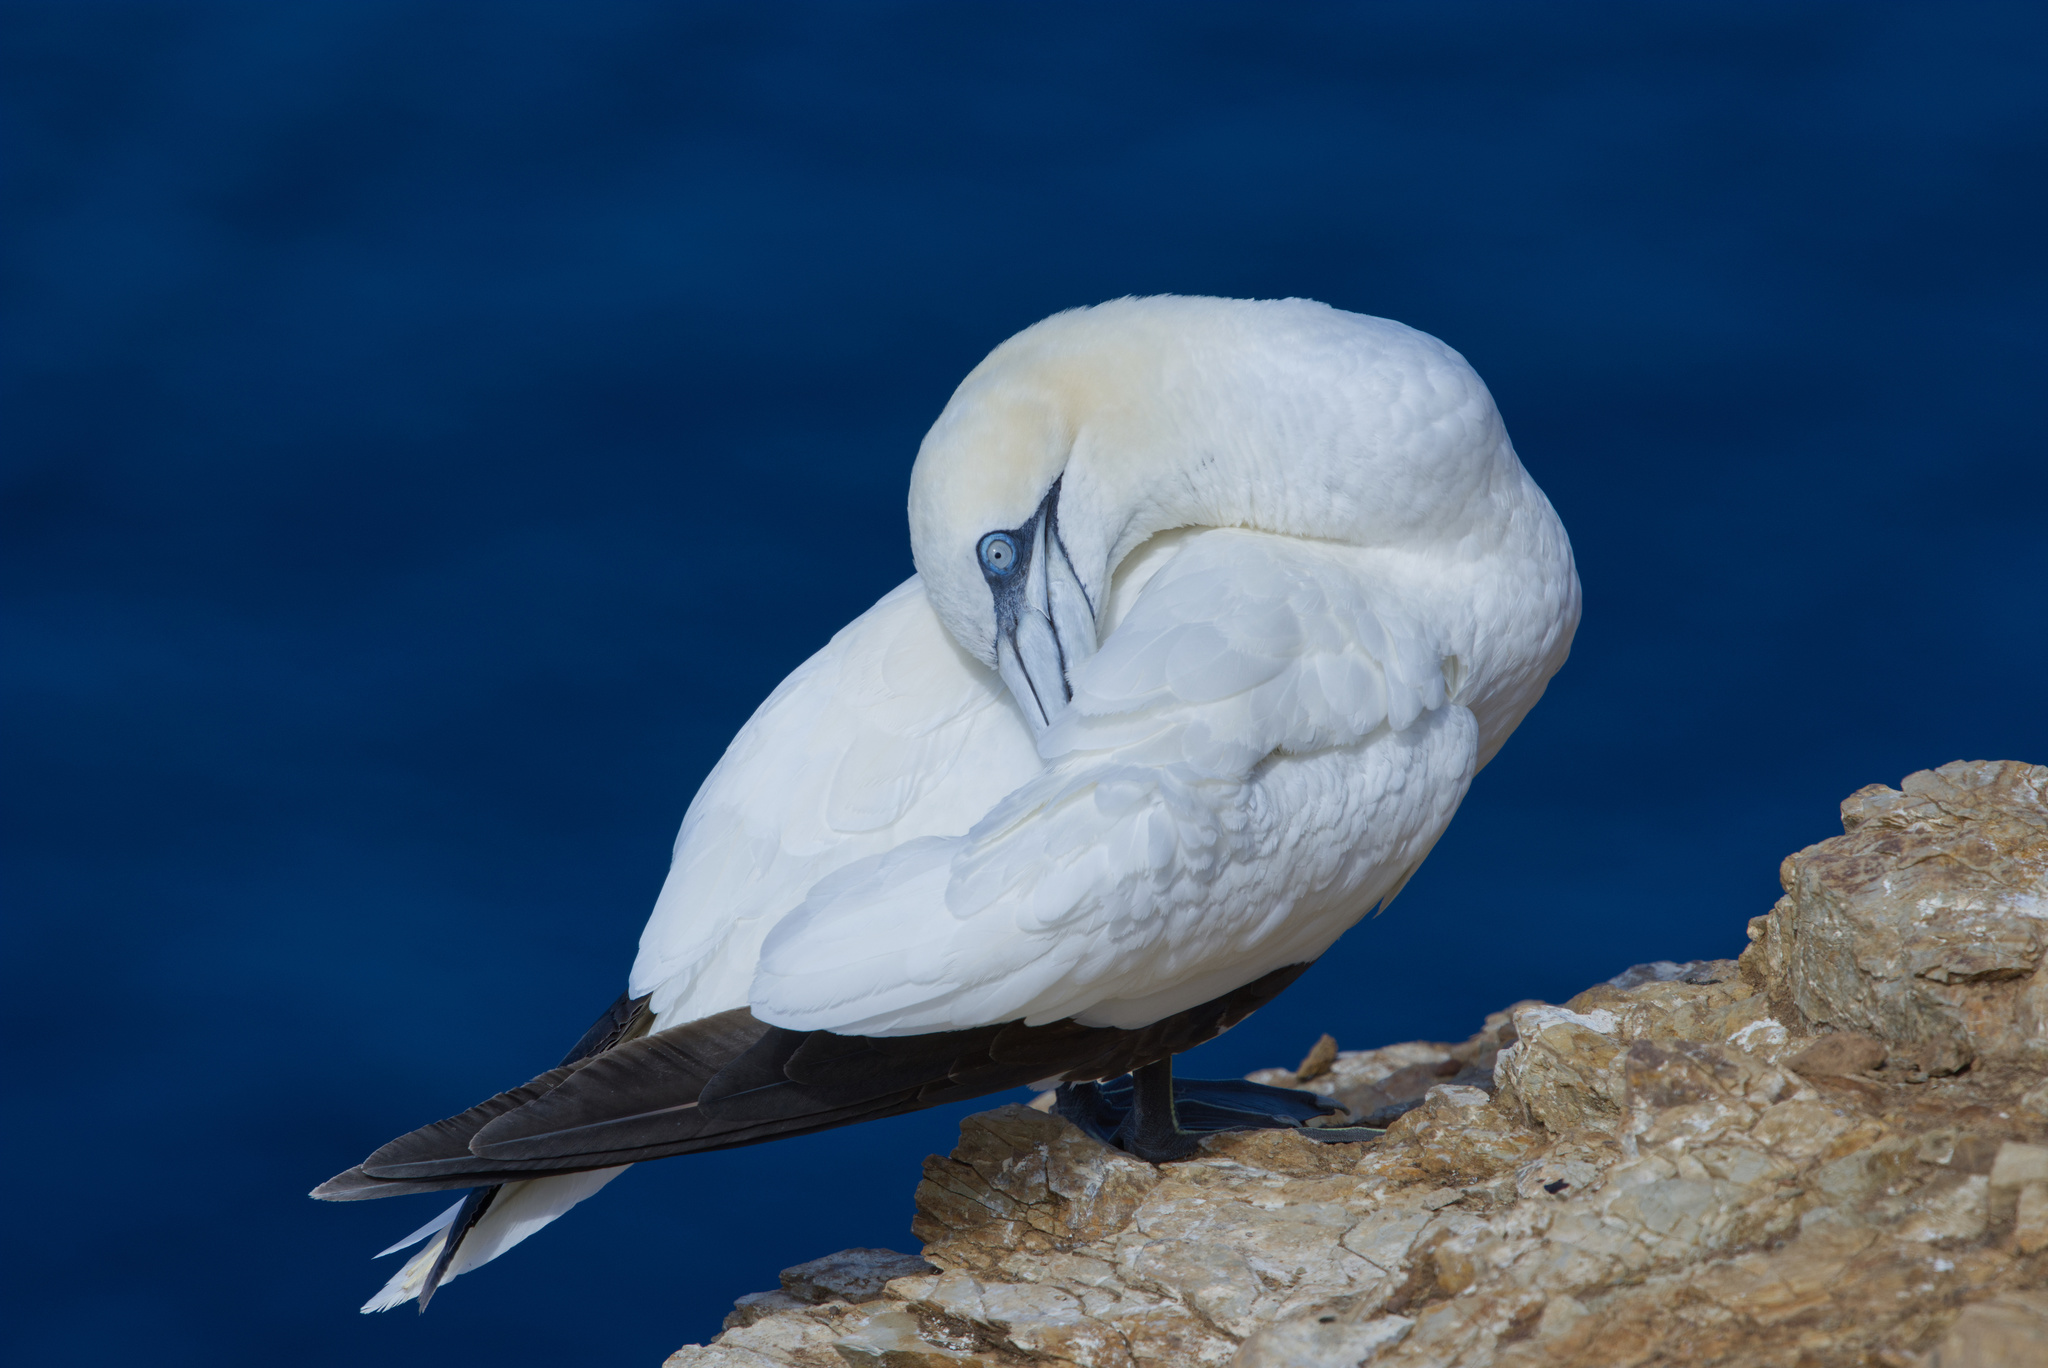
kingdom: Animalia
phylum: Chordata
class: Aves
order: Suliformes
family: Sulidae
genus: Morus
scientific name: Morus bassanus
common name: Northern gannet
